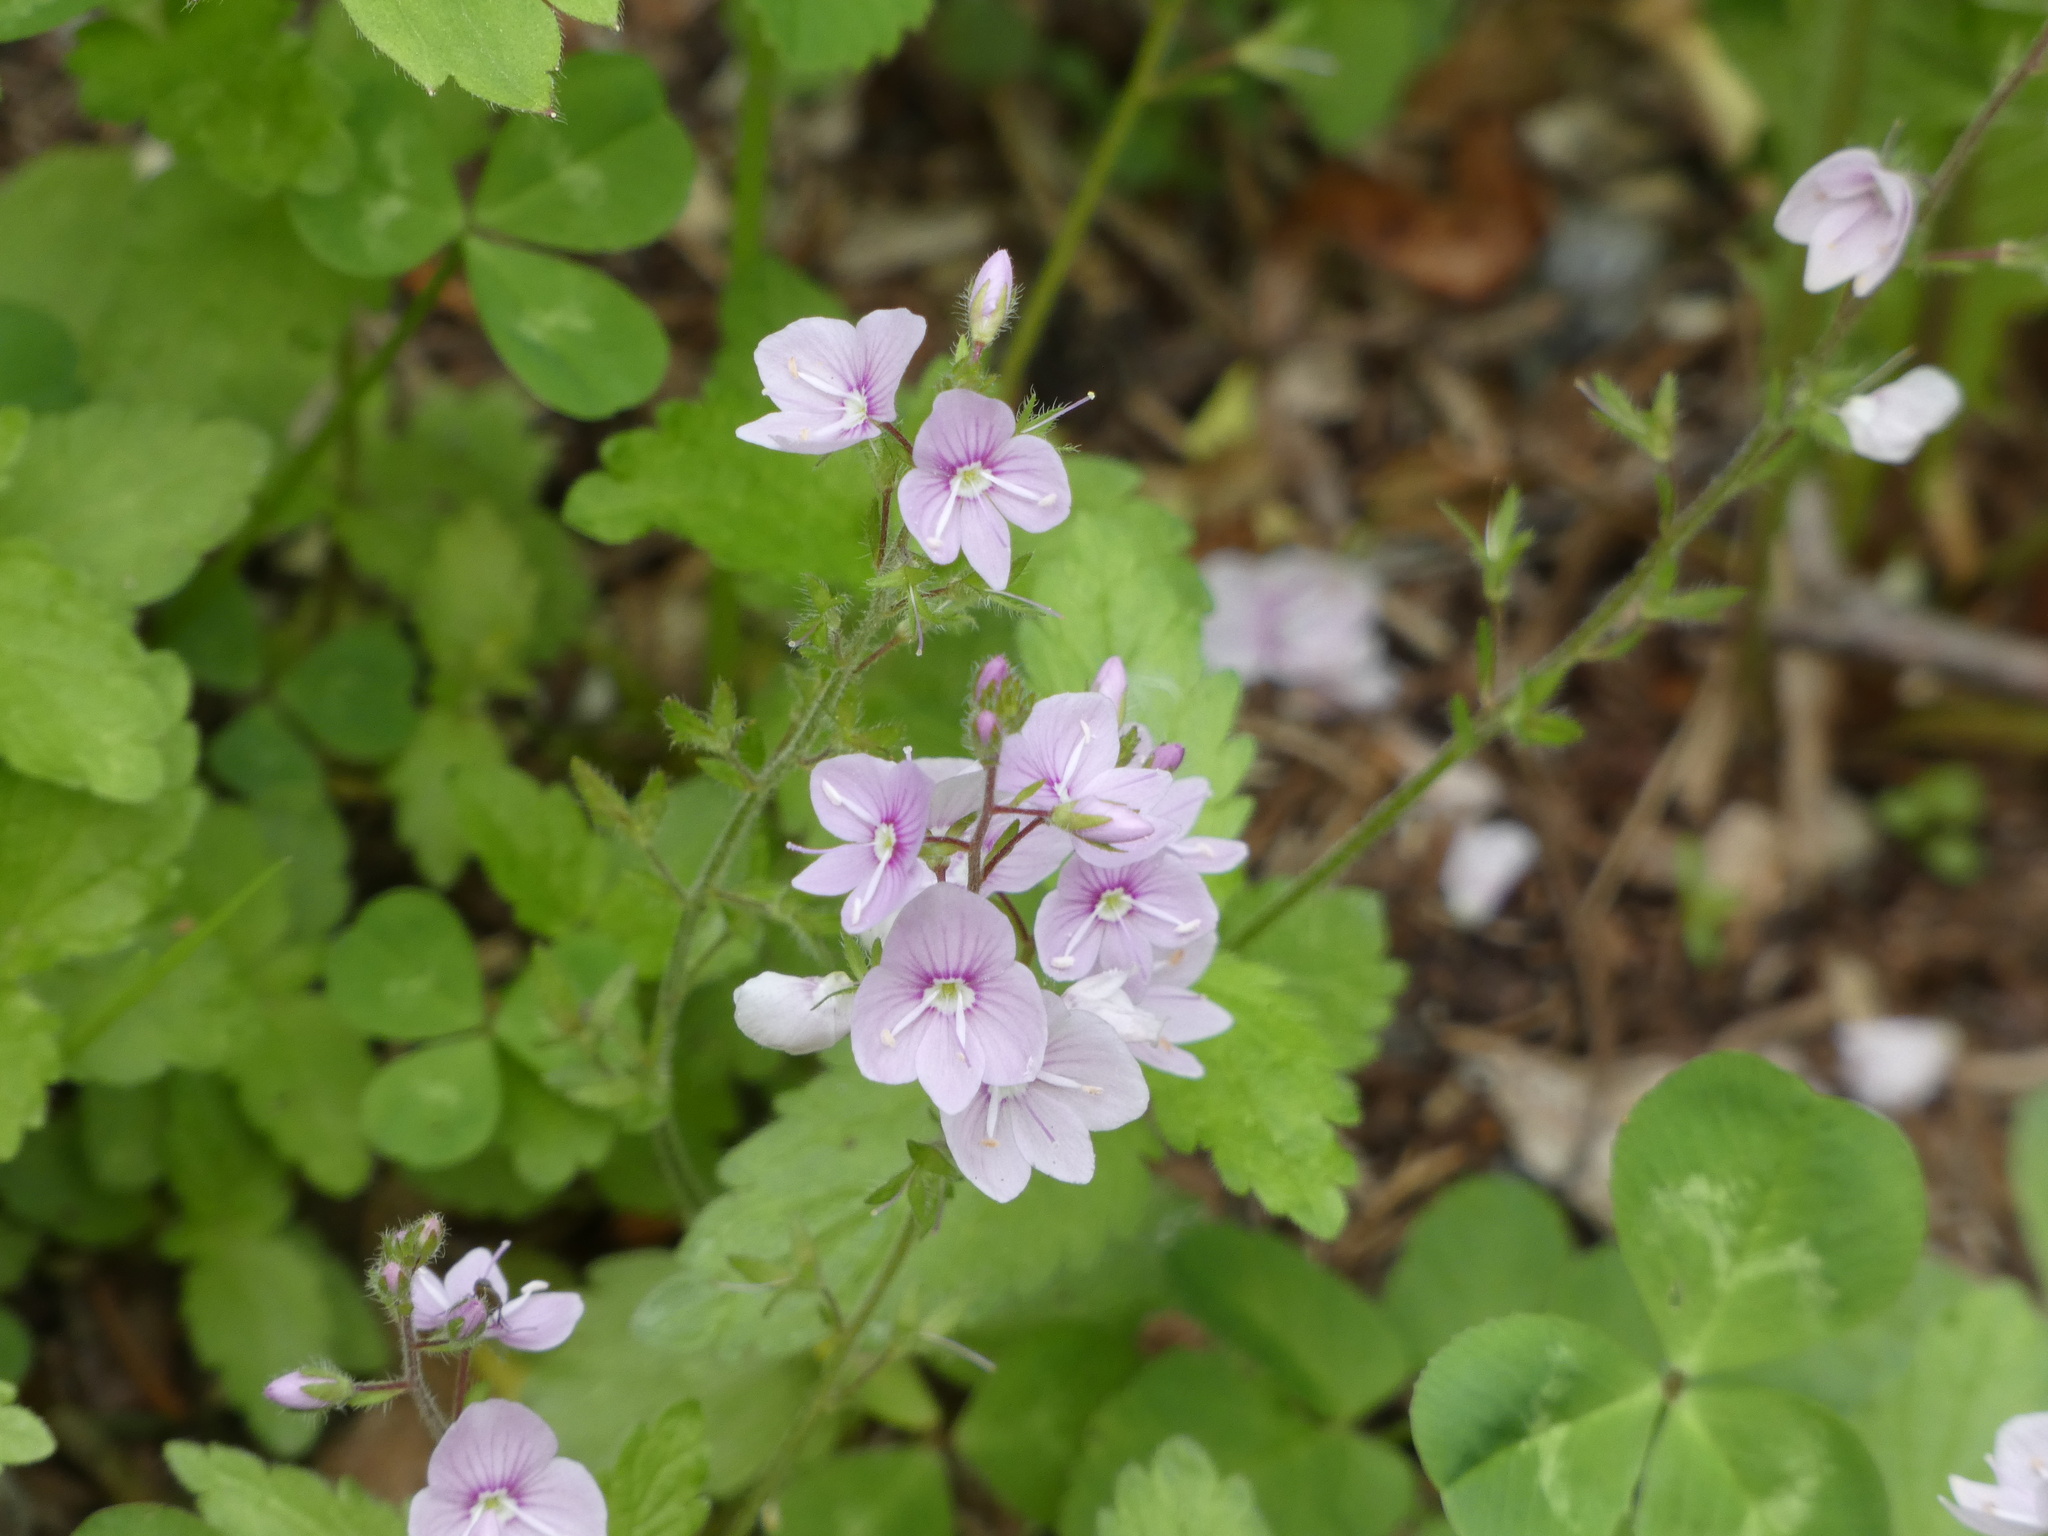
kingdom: Plantae
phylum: Tracheophyta
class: Magnoliopsida
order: Lamiales
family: Plantaginaceae
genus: Veronica
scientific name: Veronica chamaedrys
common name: Germander speedwell
